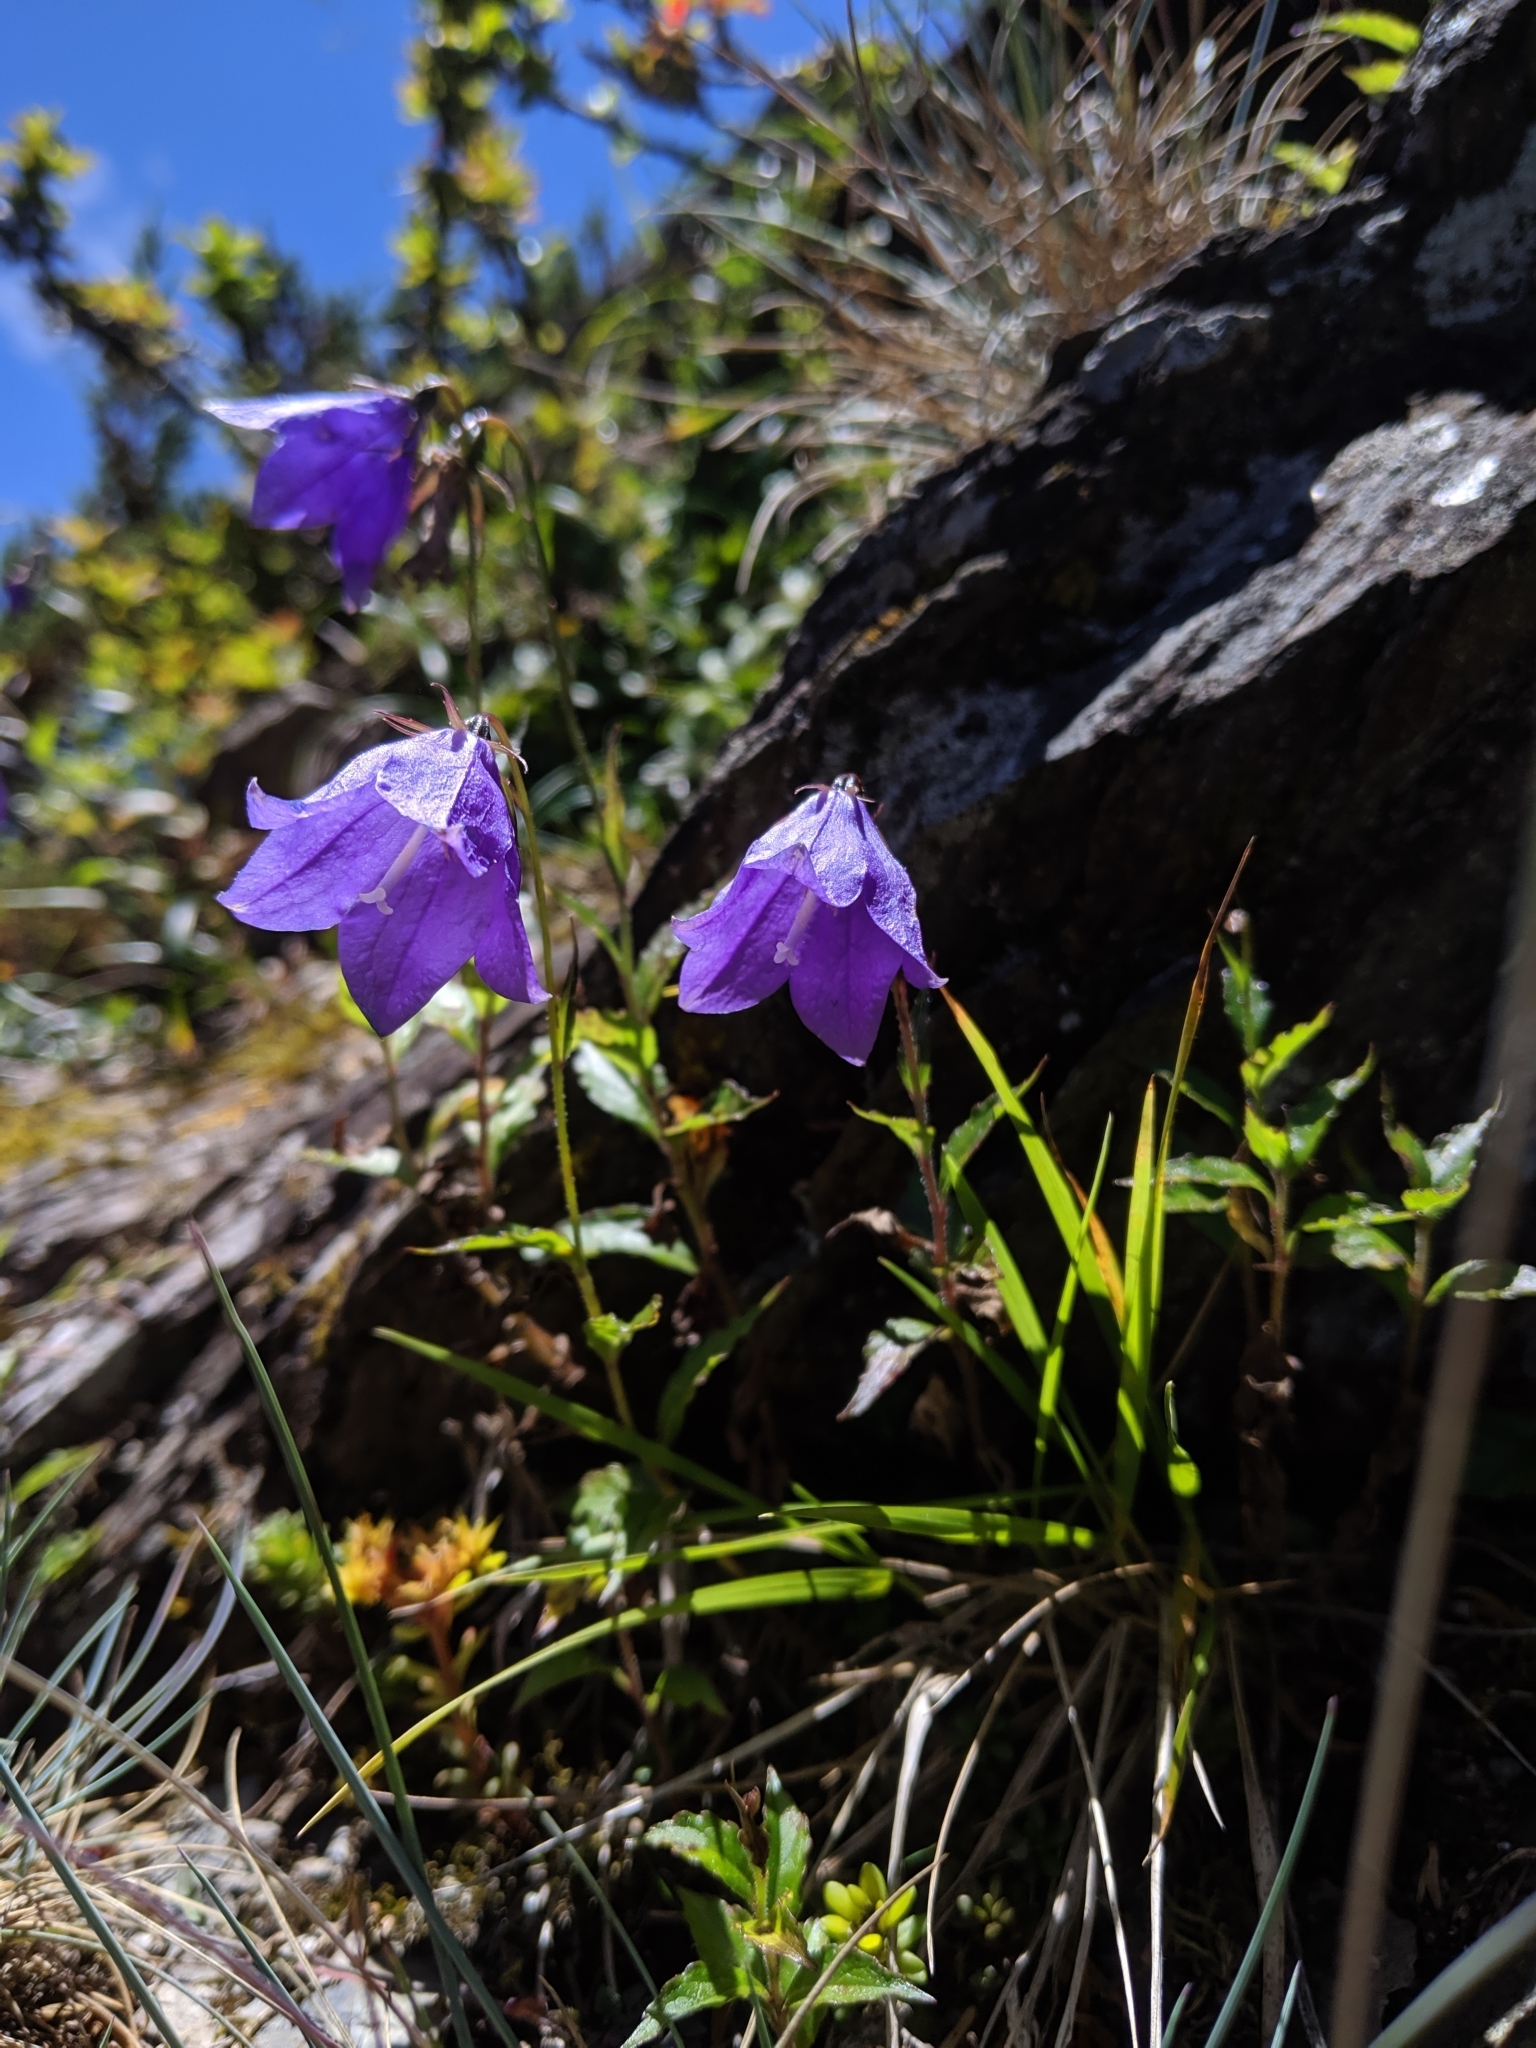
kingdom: Plantae
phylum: Tracheophyta
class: Magnoliopsida
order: Asterales
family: Campanulaceae
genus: Adenophora
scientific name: Adenophora morrisonensis
